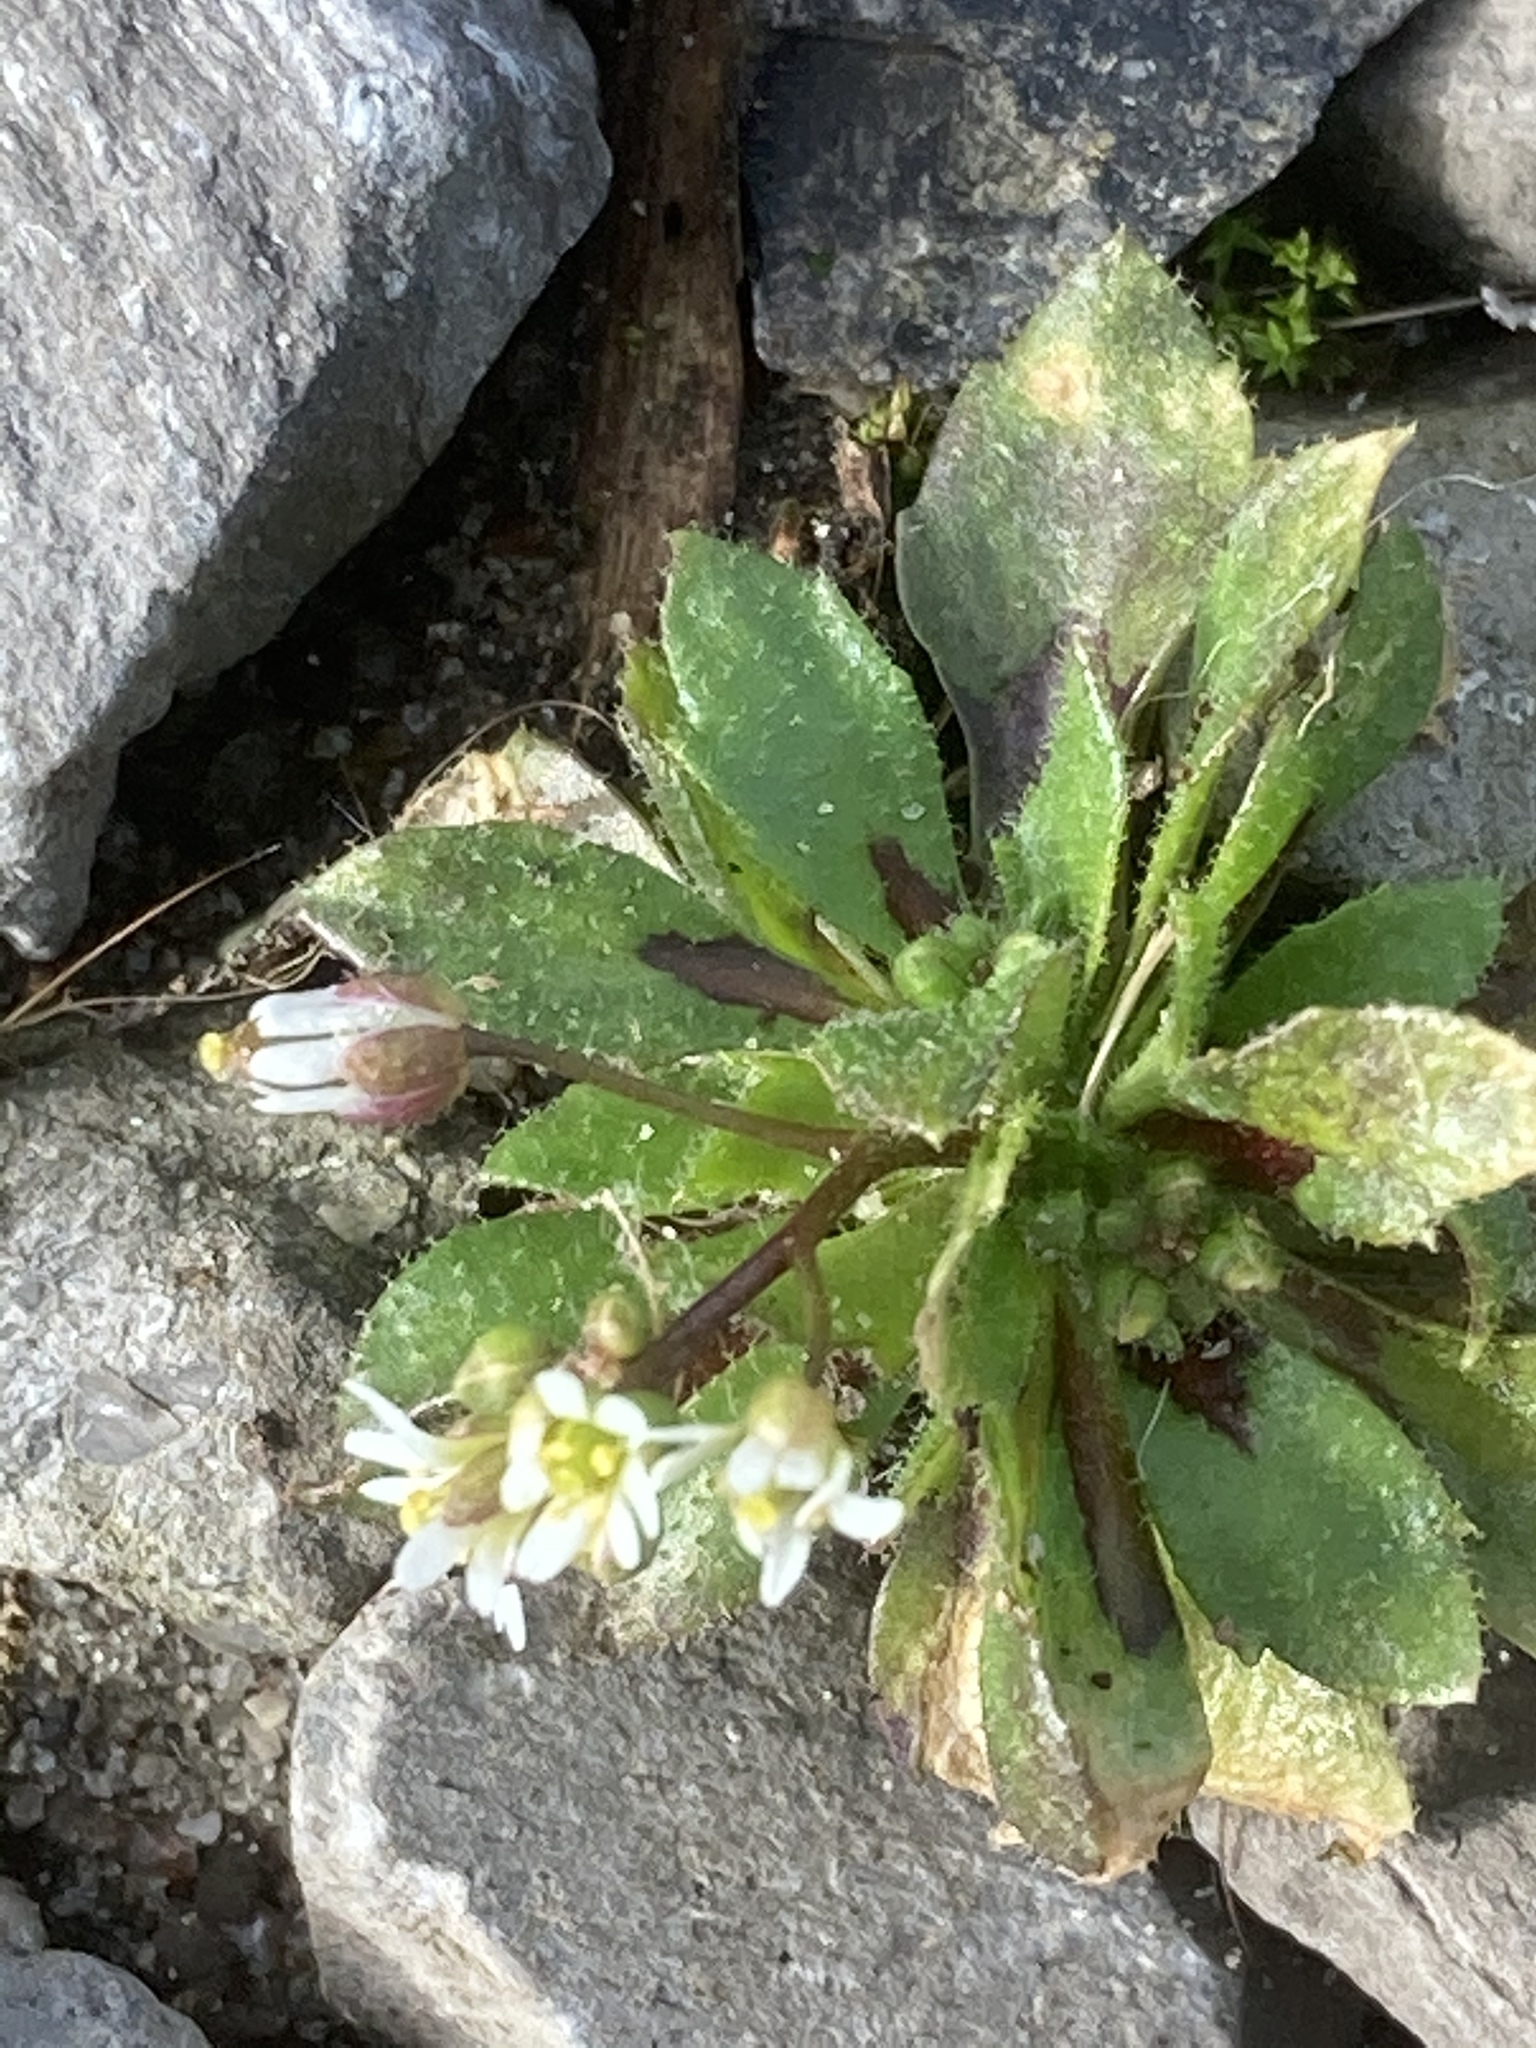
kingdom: Plantae
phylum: Tracheophyta
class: Magnoliopsida
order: Brassicales
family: Brassicaceae
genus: Draba
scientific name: Draba verna
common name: Spring draba
